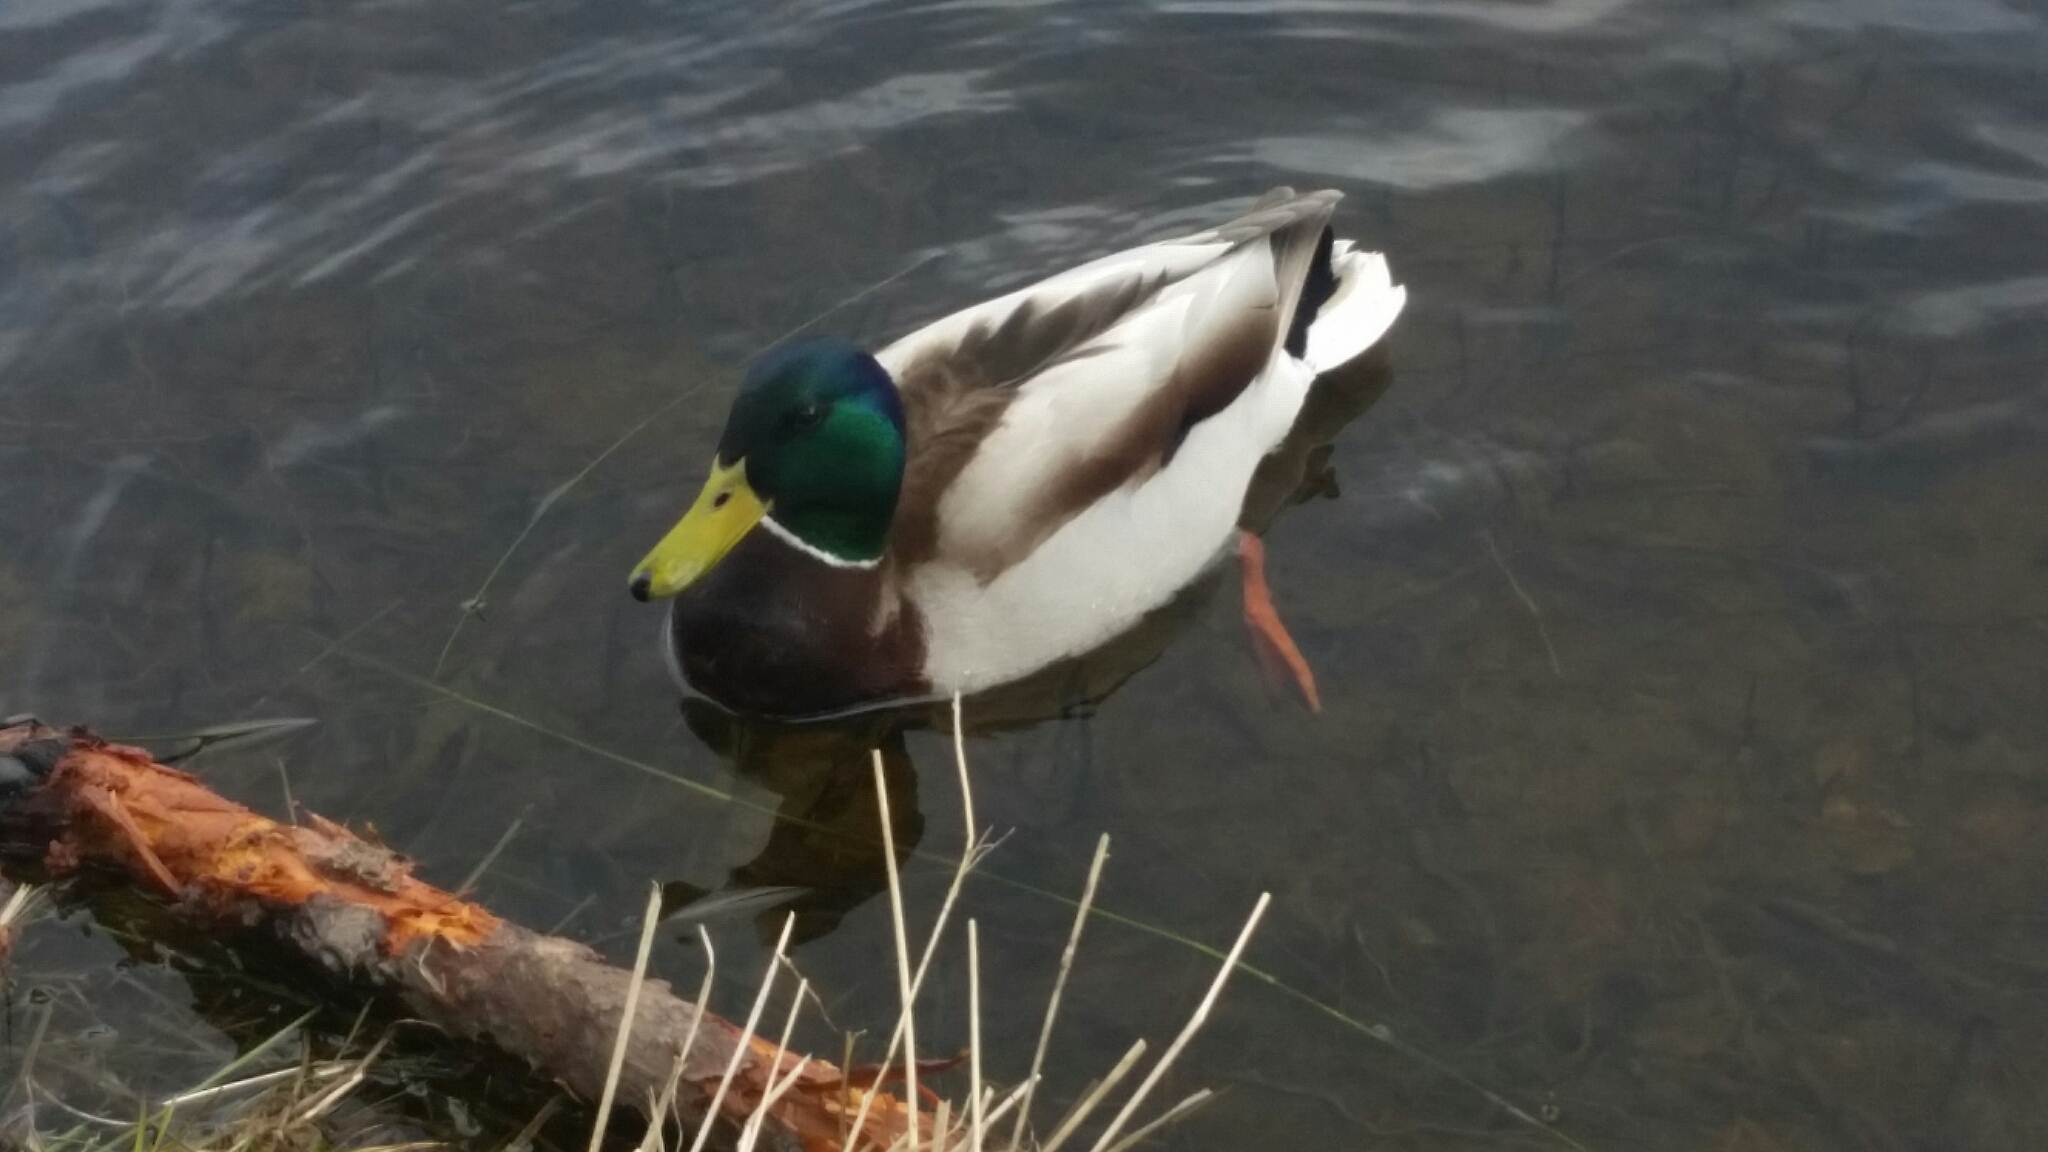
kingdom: Animalia
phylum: Chordata
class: Aves
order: Anseriformes
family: Anatidae
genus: Anas
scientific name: Anas platyrhynchos
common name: Mallard
